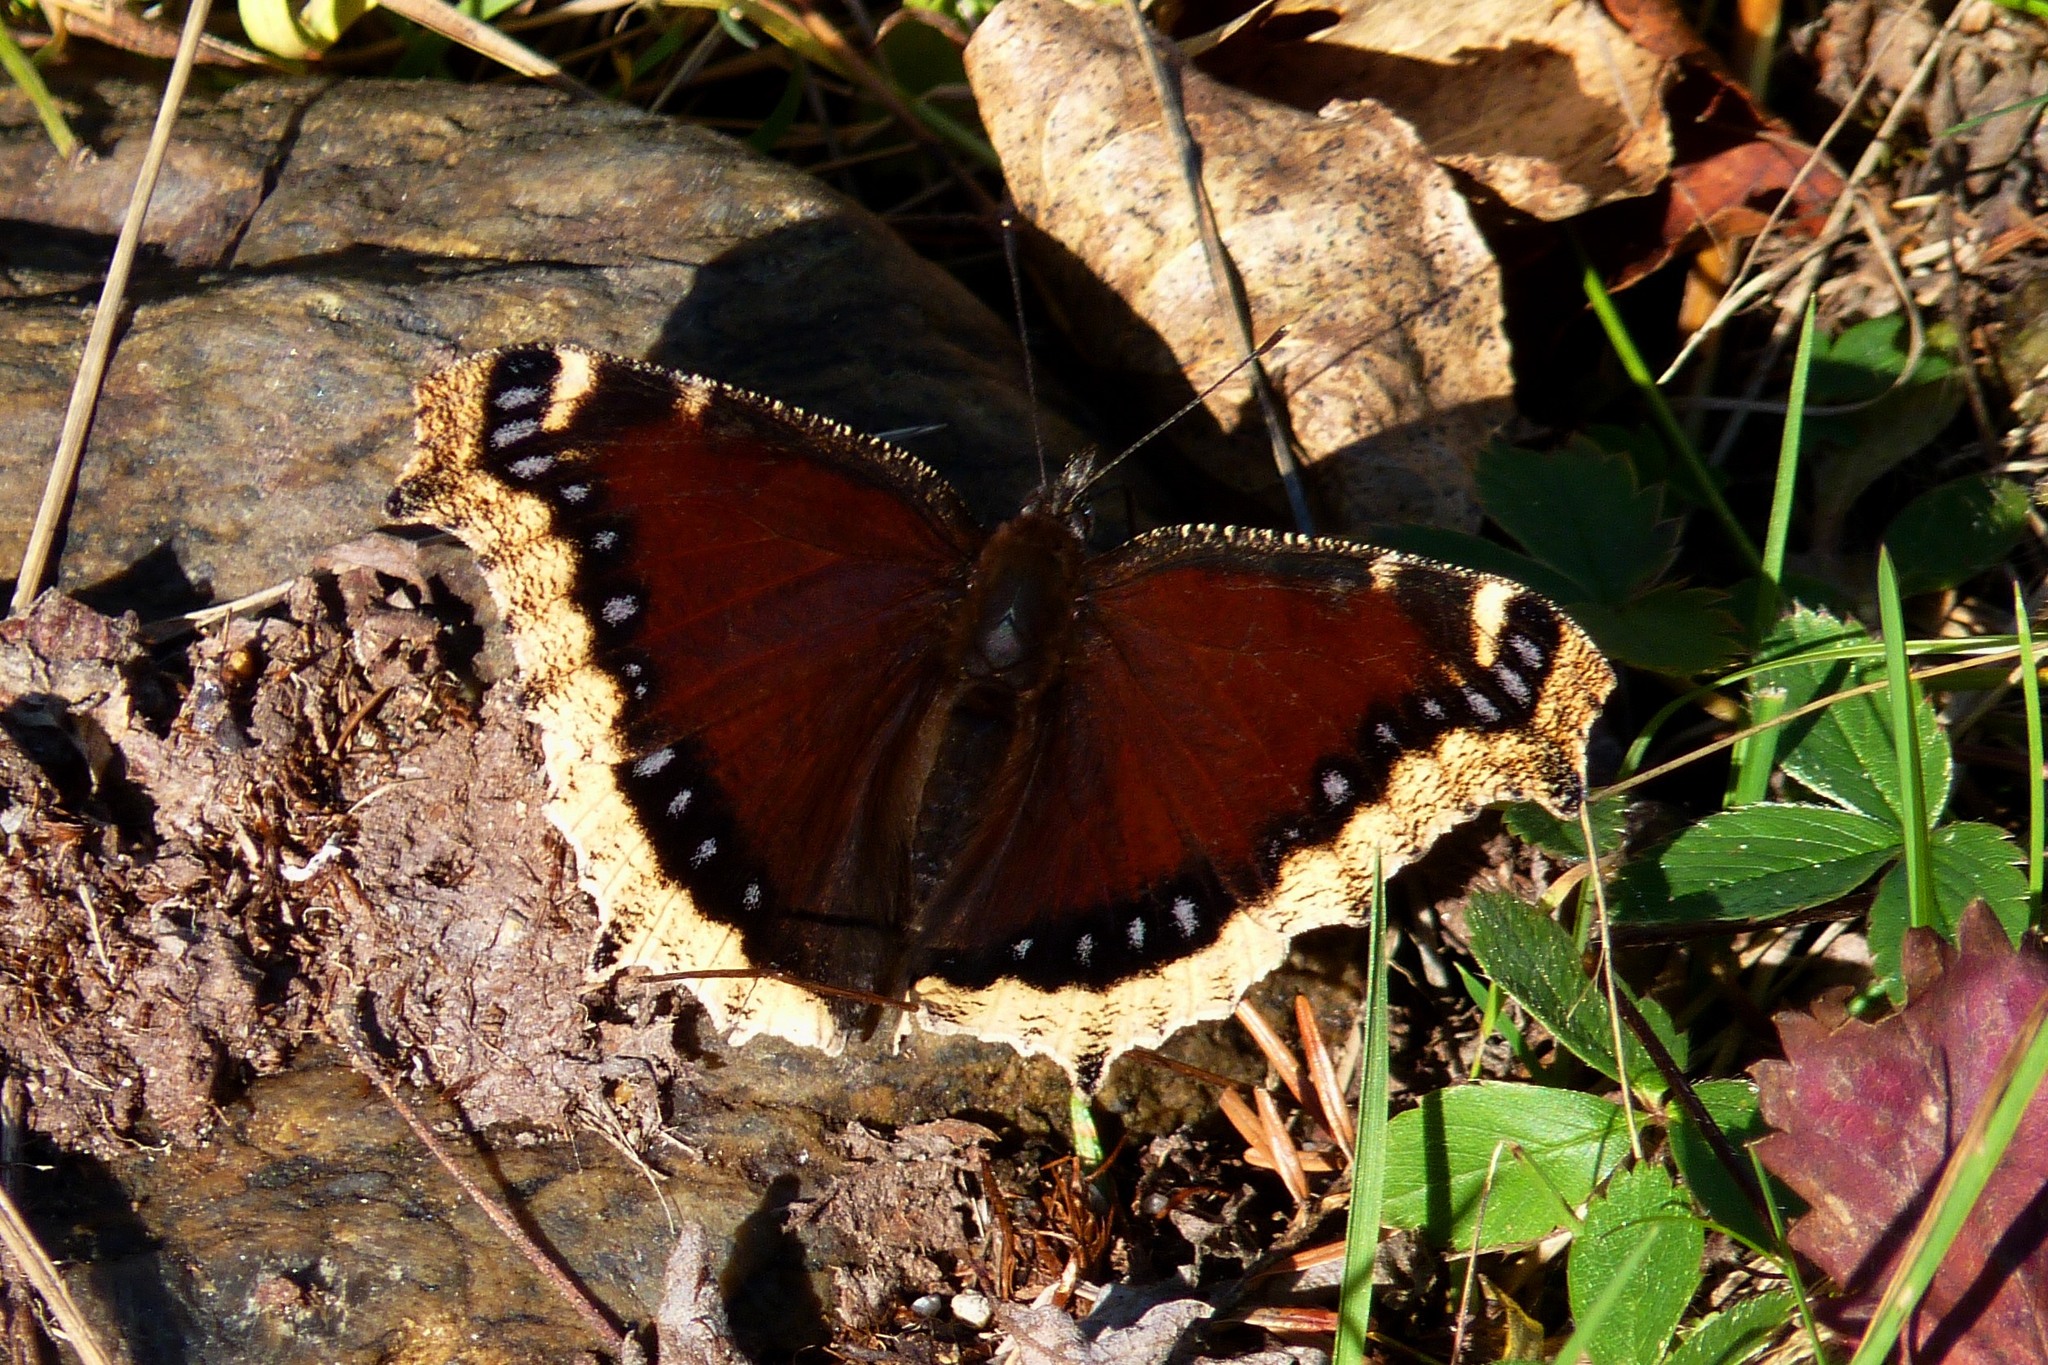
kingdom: Animalia
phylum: Arthropoda
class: Insecta
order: Lepidoptera
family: Nymphalidae
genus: Nymphalis
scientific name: Nymphalis antiopa
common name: Camberwell beauty
